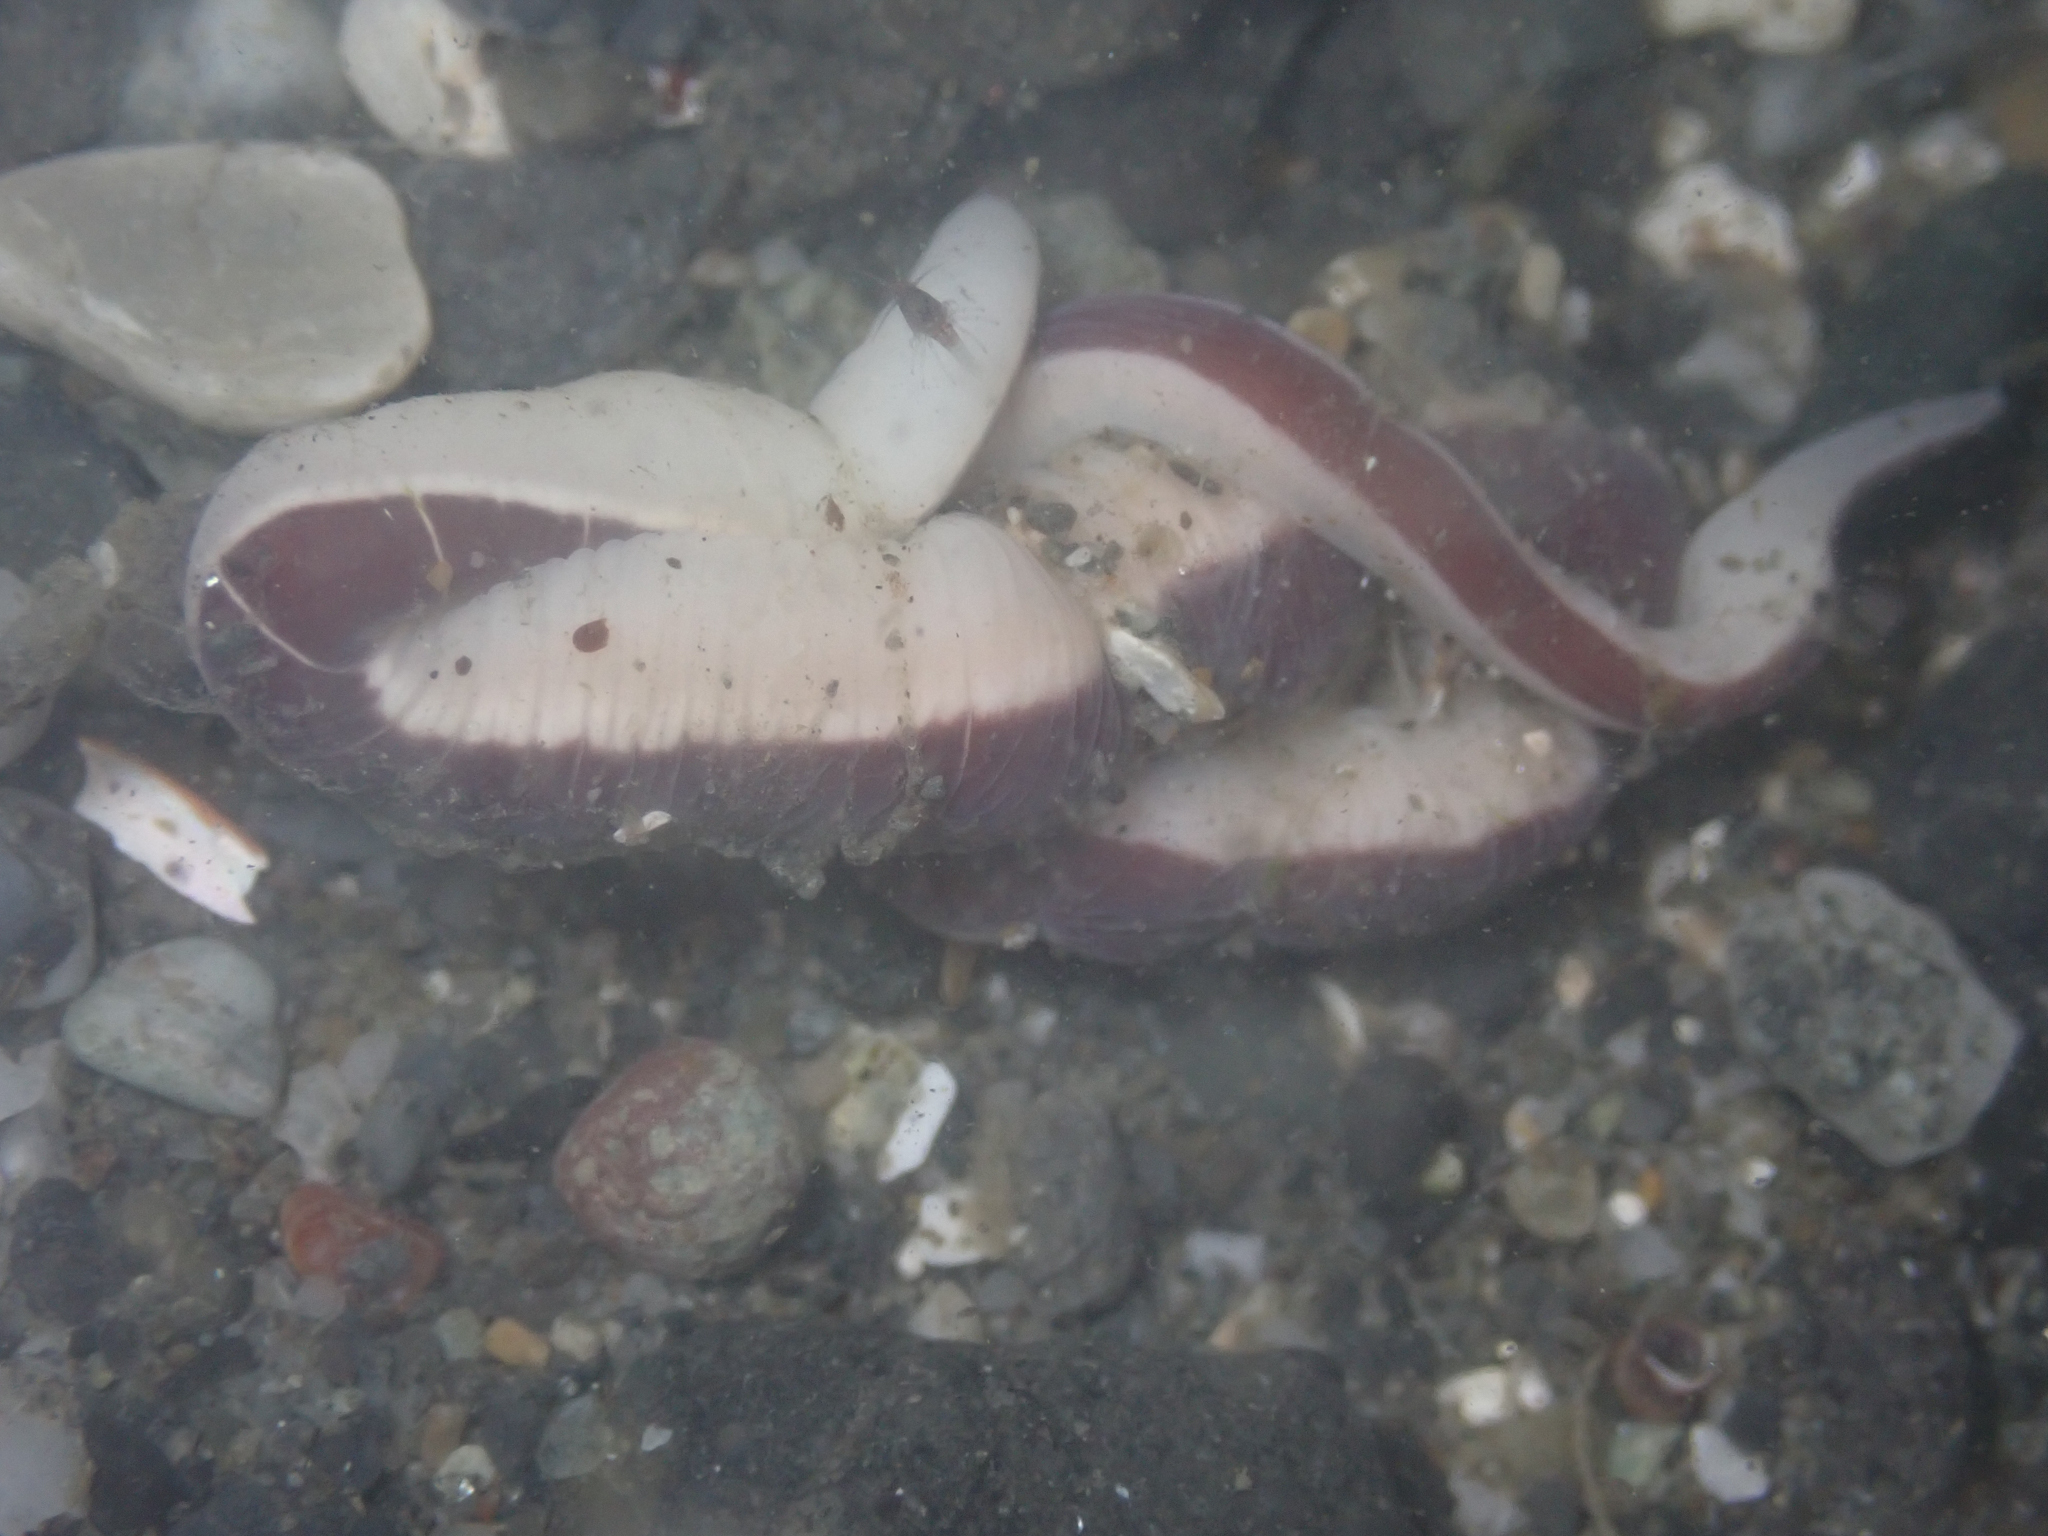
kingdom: Animalia
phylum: Nemertea
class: Pilidiophora
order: Heteronemertea
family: Lineidae
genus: Micrura
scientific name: Micrura verrilli
